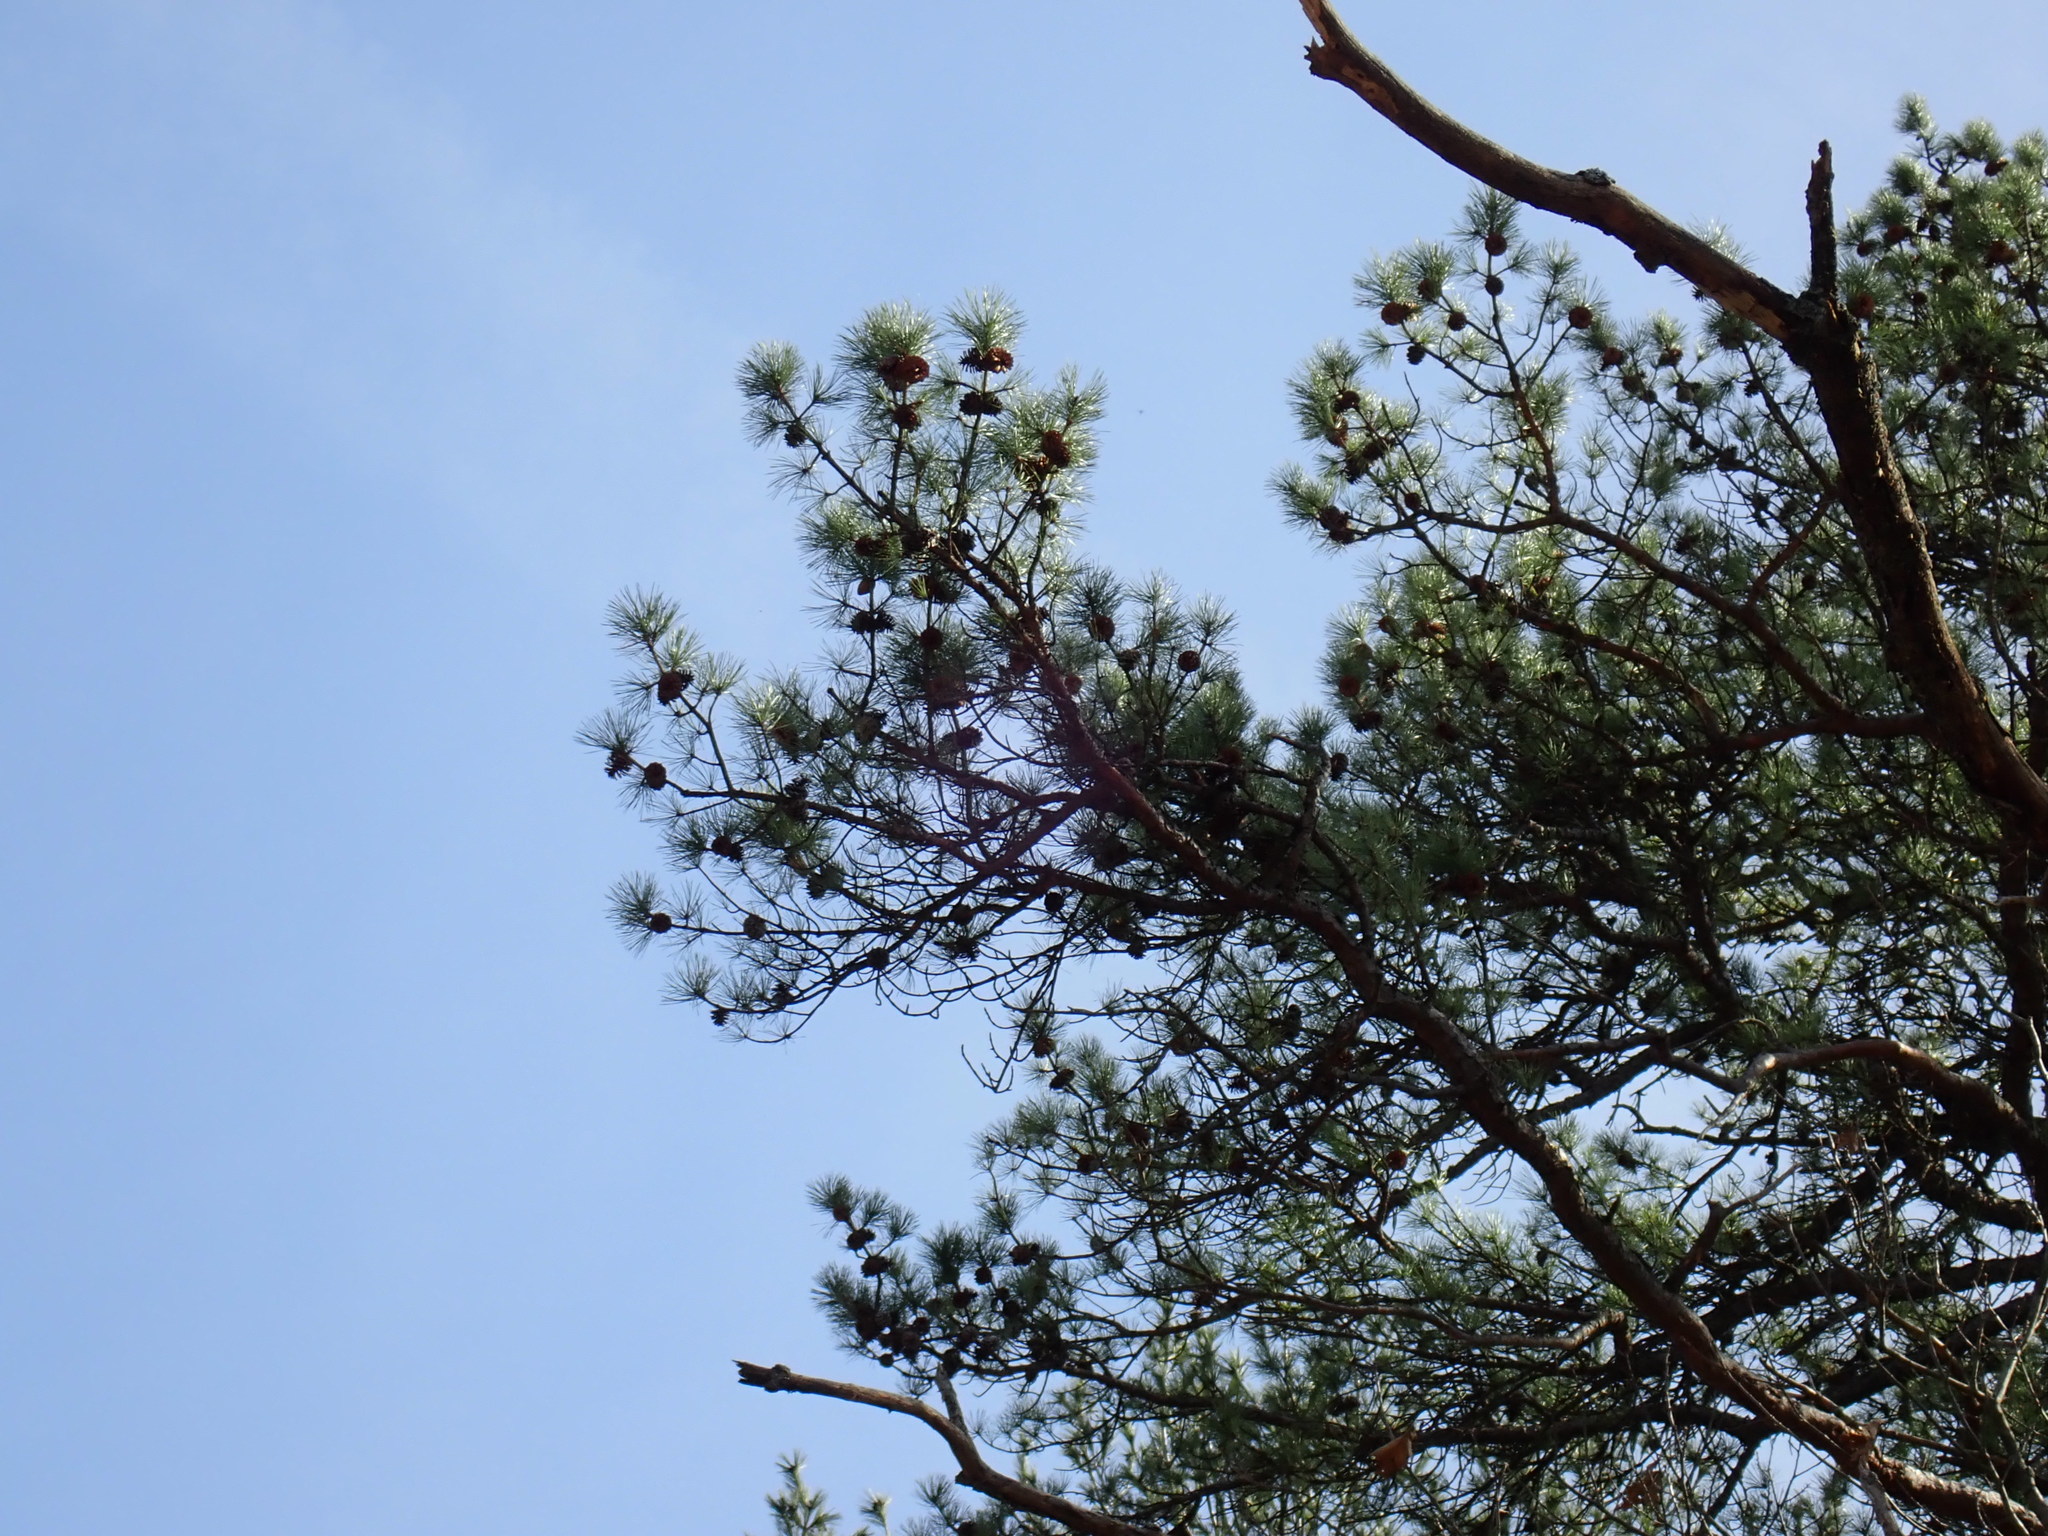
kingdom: Plantae
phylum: Tracheophyta
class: Pinopsida
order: Pinales
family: Pinaceae
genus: Pinus
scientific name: Pinus rigida
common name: Pitch pine
